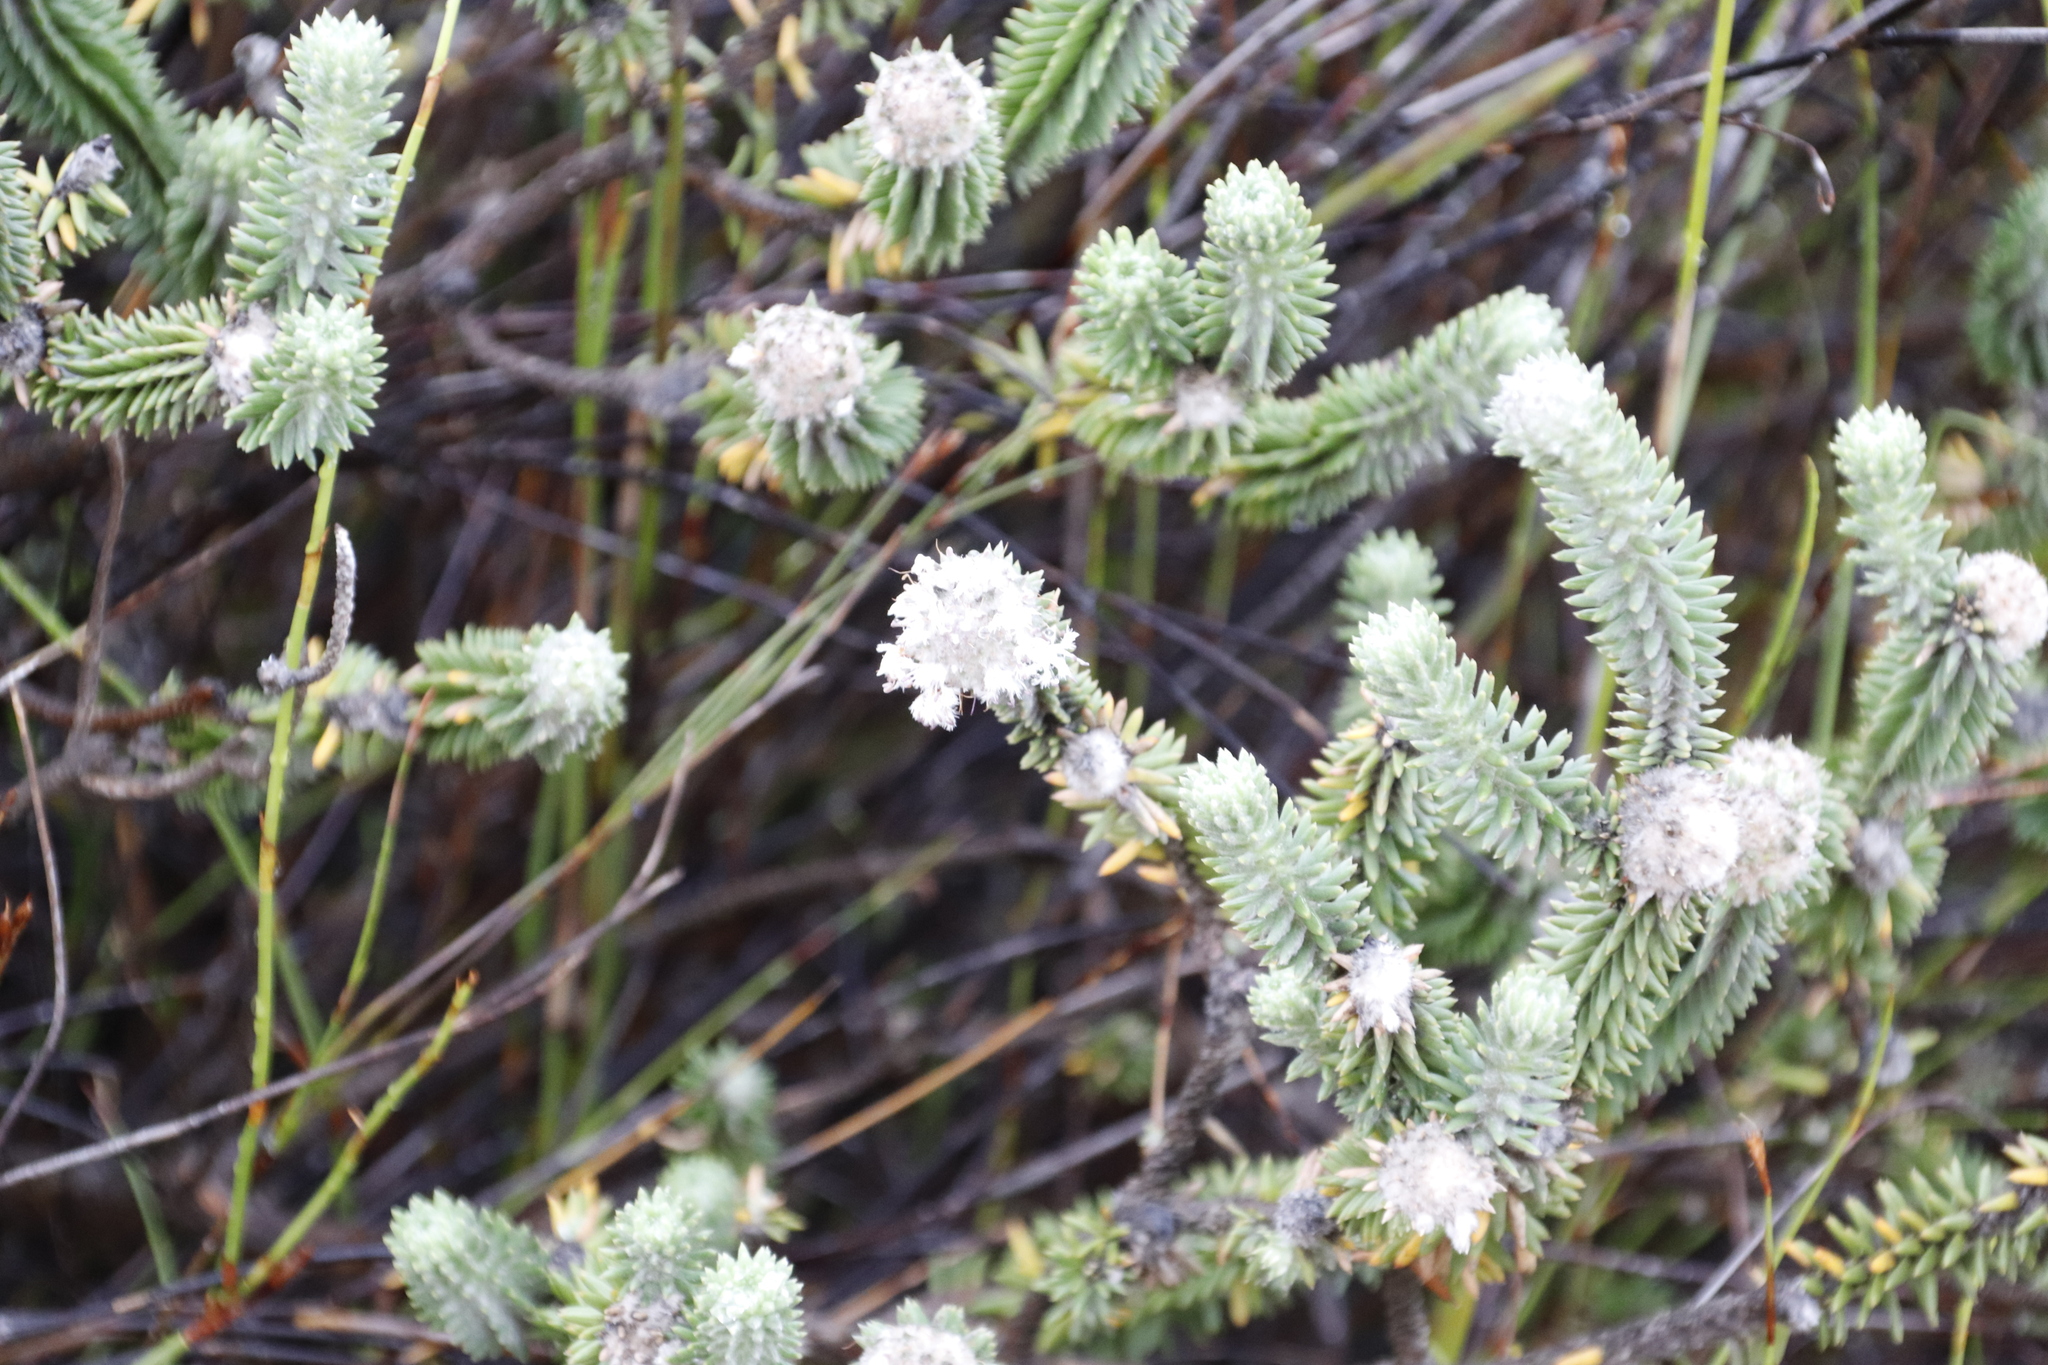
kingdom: Plantae
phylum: Tracheophyta
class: Magnoliopsida
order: Lamiales
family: Stilbaceae
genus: Kogelbergia
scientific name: Kogelbergia verticillata
